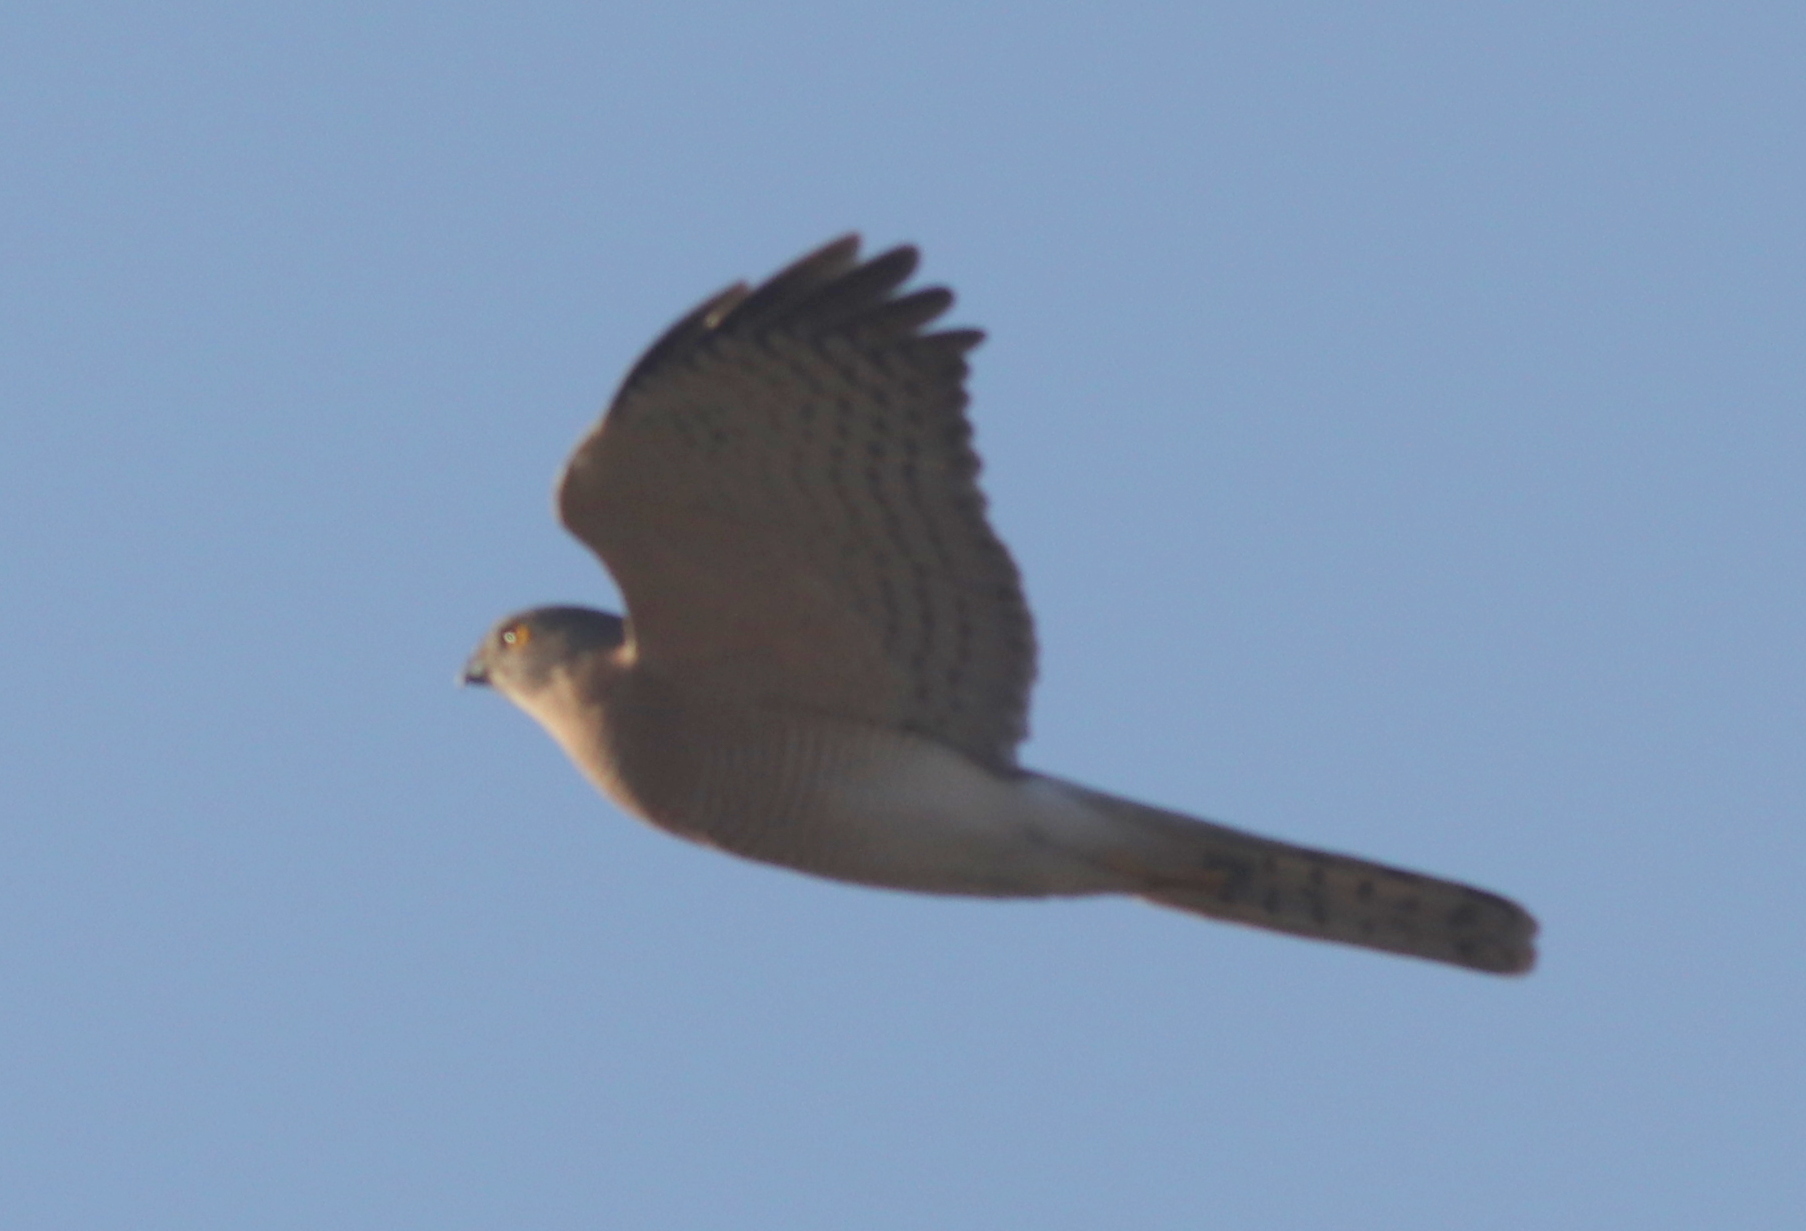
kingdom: Animalia
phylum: Chordata
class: Aves
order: Accipitriformes
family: Accipitridae
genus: Accipiter
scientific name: Accipiter badius
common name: Shikra
